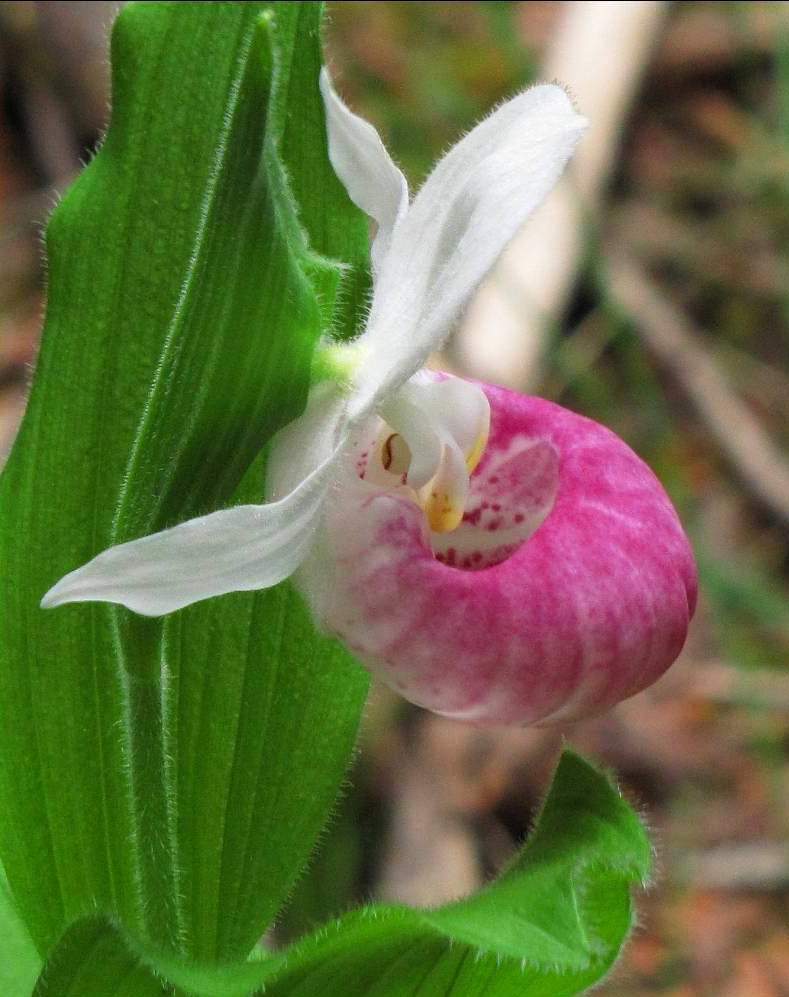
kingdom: Plantae
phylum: Tracheophyta
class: Liliopsida
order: Asparagales
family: Orchidaceae
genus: Cypripedium
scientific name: Cypripedium reginae
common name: Queen lady's-slipper
